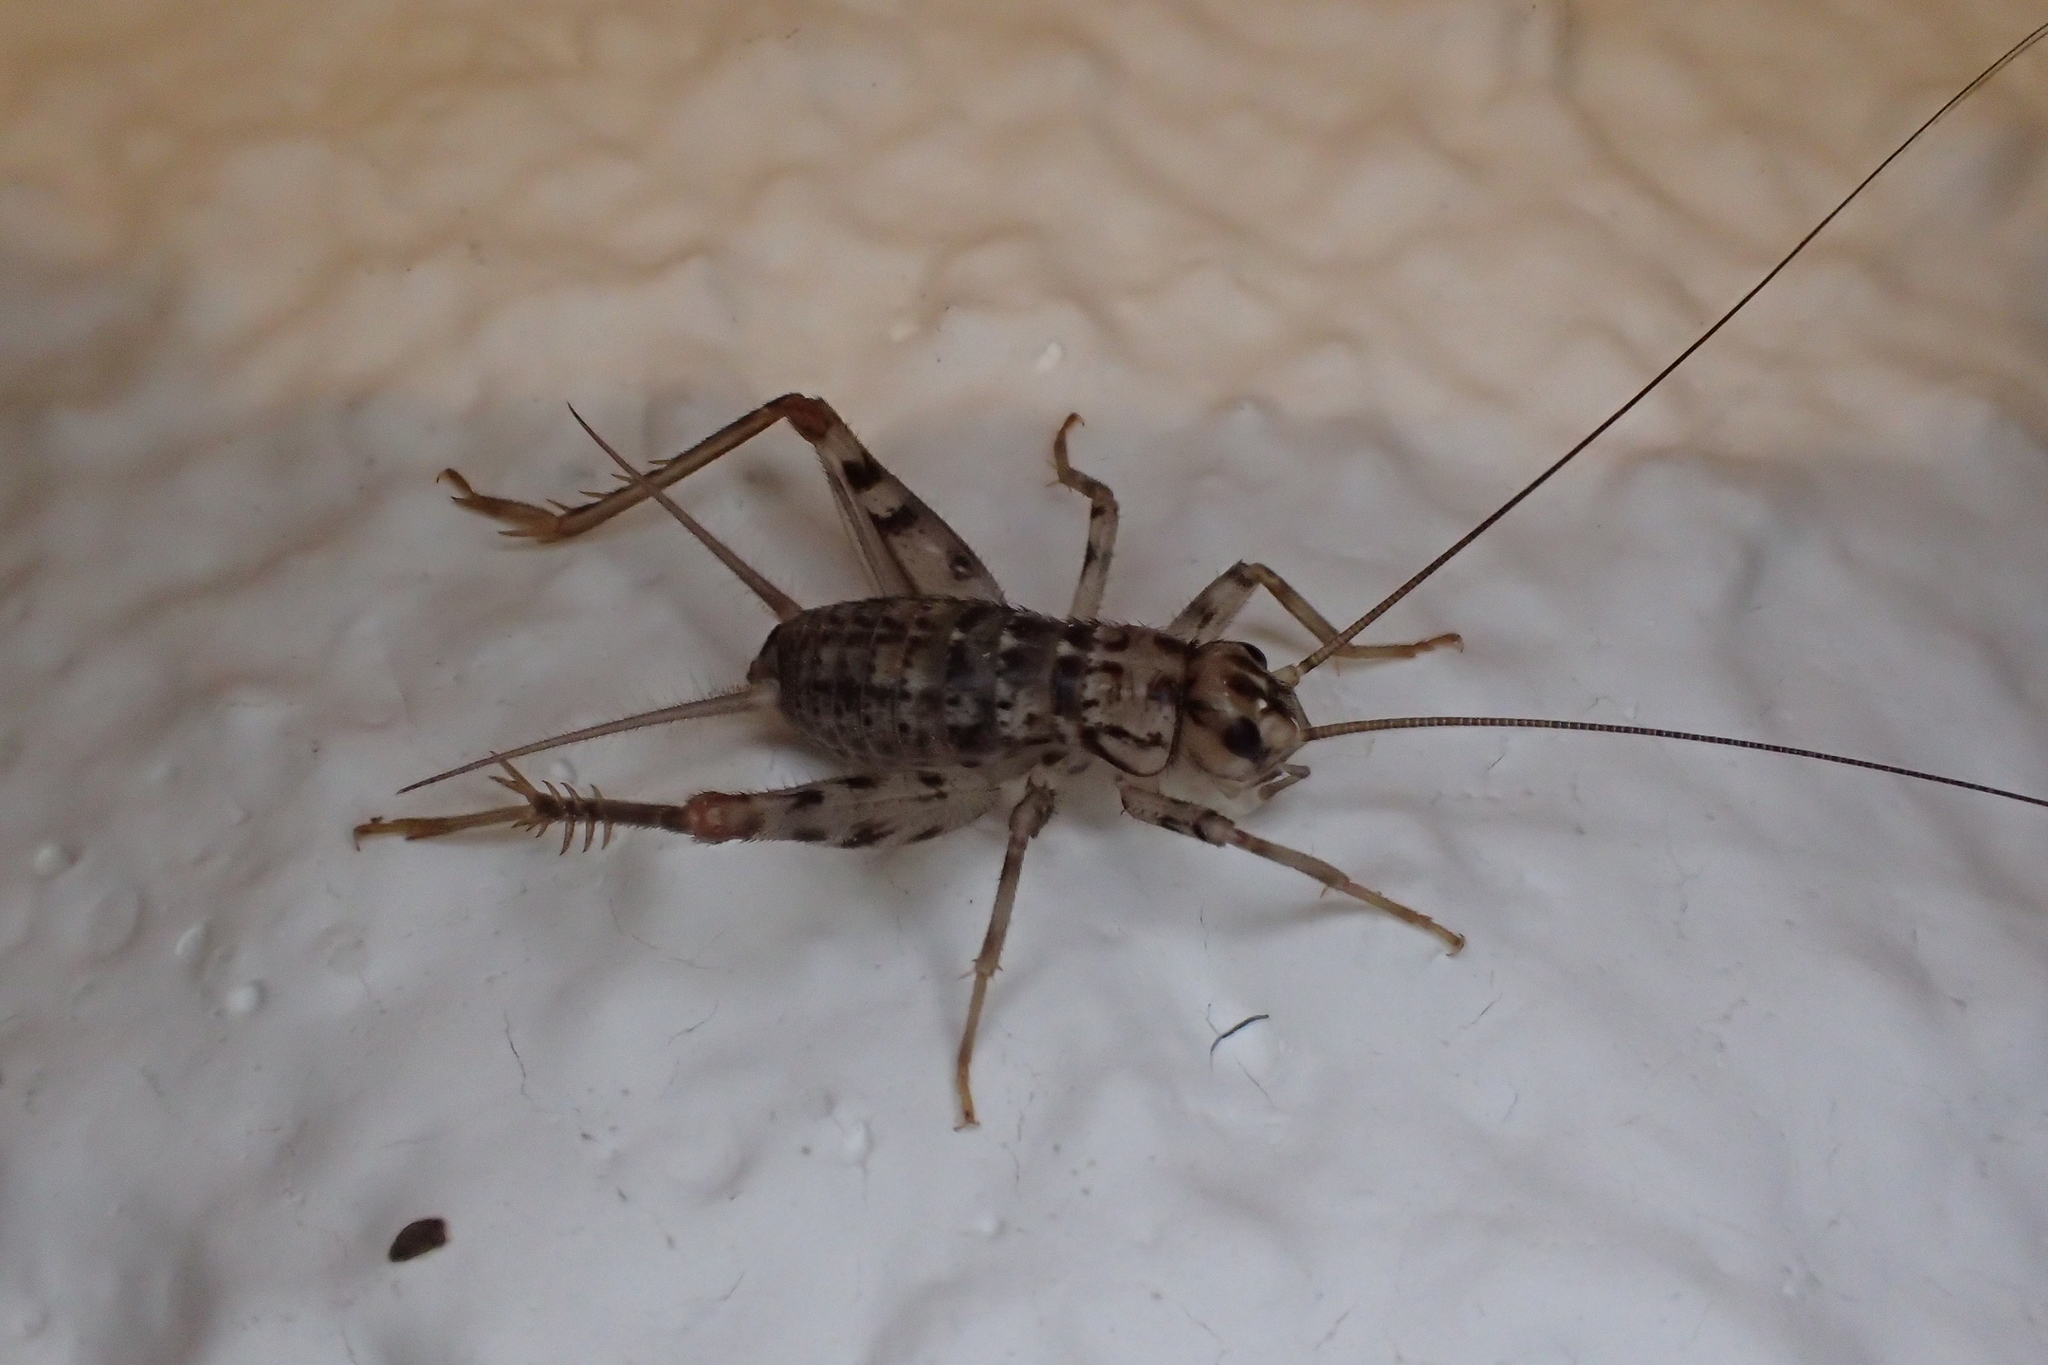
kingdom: Animalia
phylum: Arthropoda
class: Insecta
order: Orthoptera
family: Gryllidae
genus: Gryllomorpha
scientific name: Gryllomorpha dalmatina
